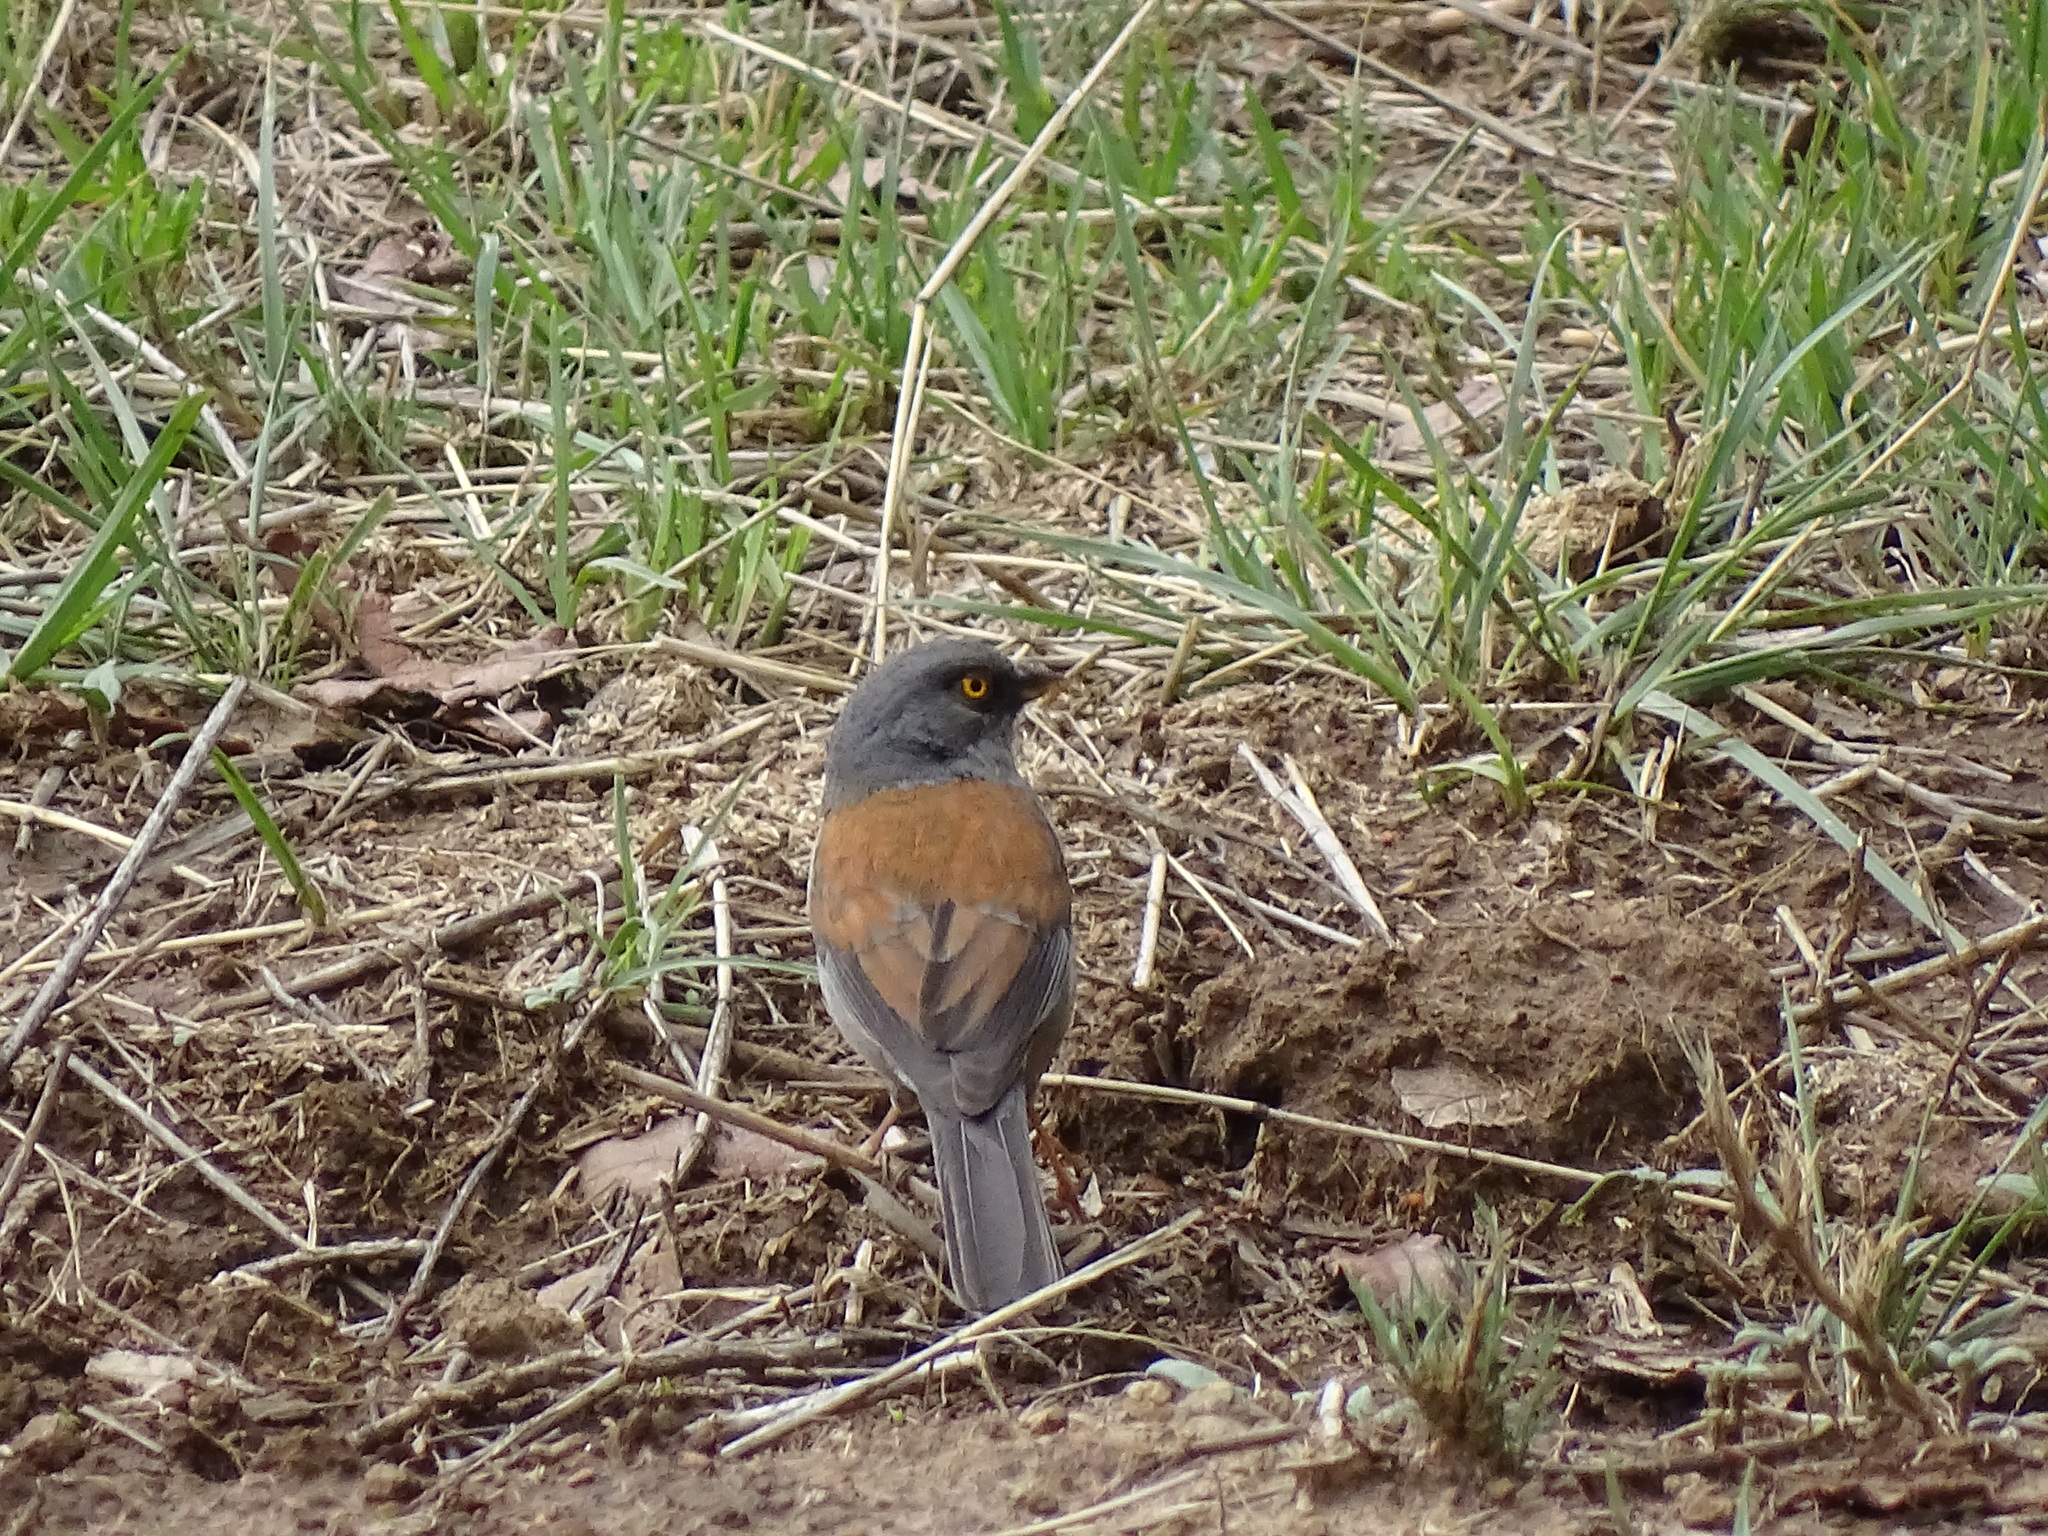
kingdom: Animalia
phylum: Chordata
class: Aves
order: Passeriformes
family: Passerellidae
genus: Junco
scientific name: Junco phaeonotus
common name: Yellow-eyed junco
